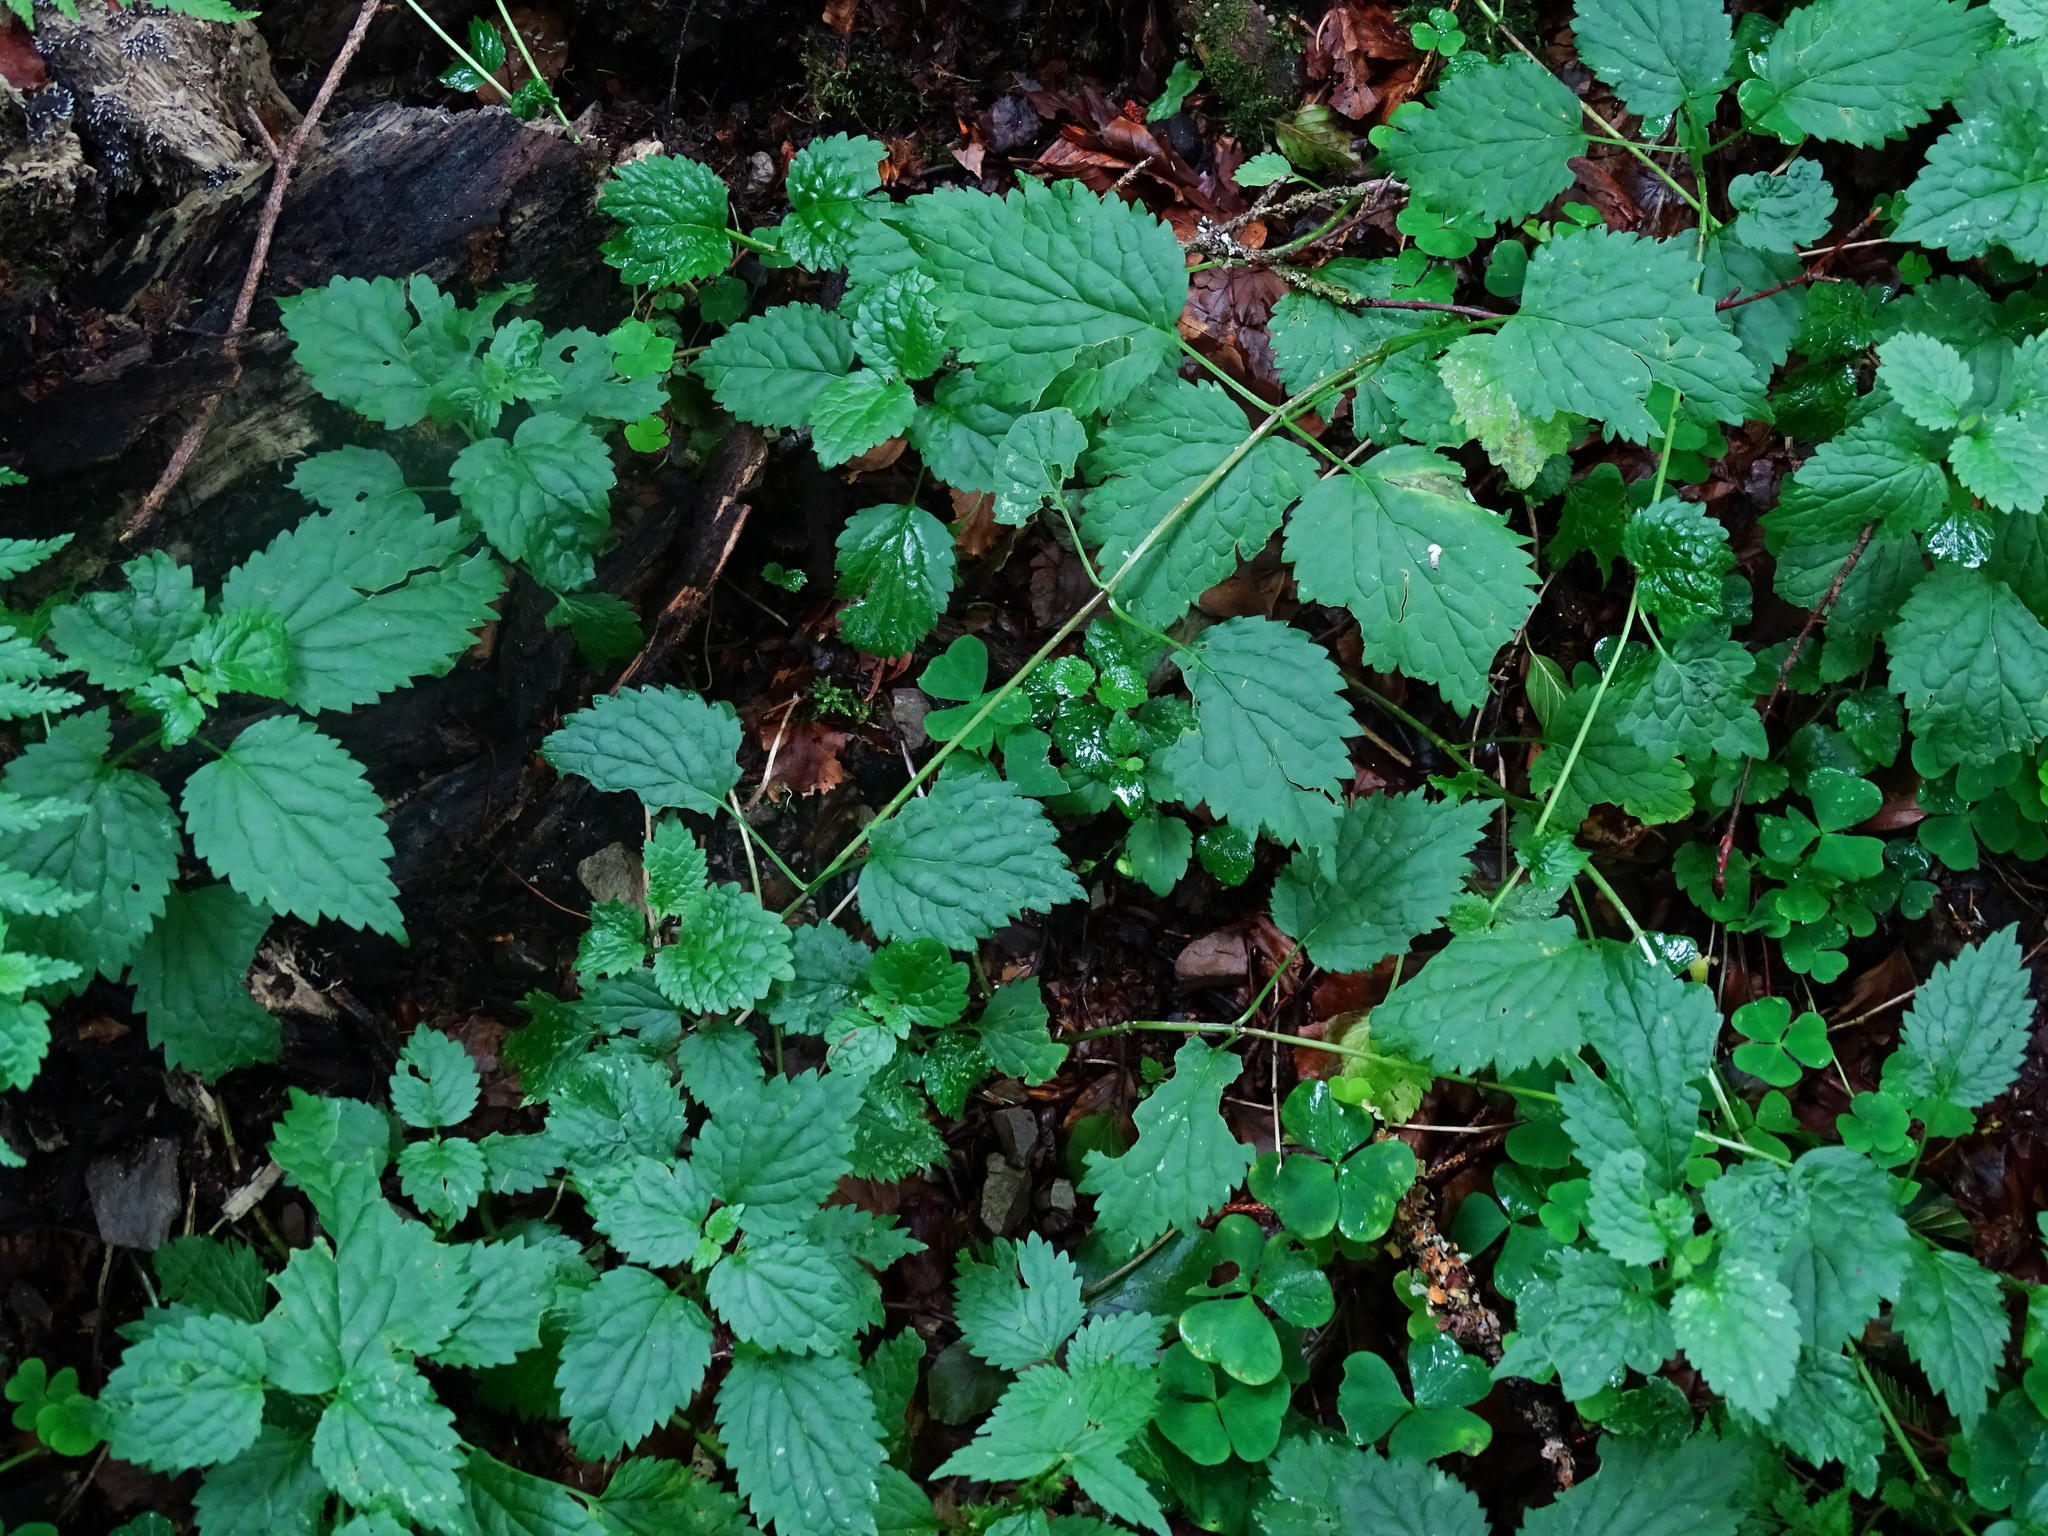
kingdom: Plantae
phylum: Tracheophyta
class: Magnoliopsida
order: Lamiales
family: Lamiaceae
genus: Lamium
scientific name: Lamium galeobdolon
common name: Yellow archangel
